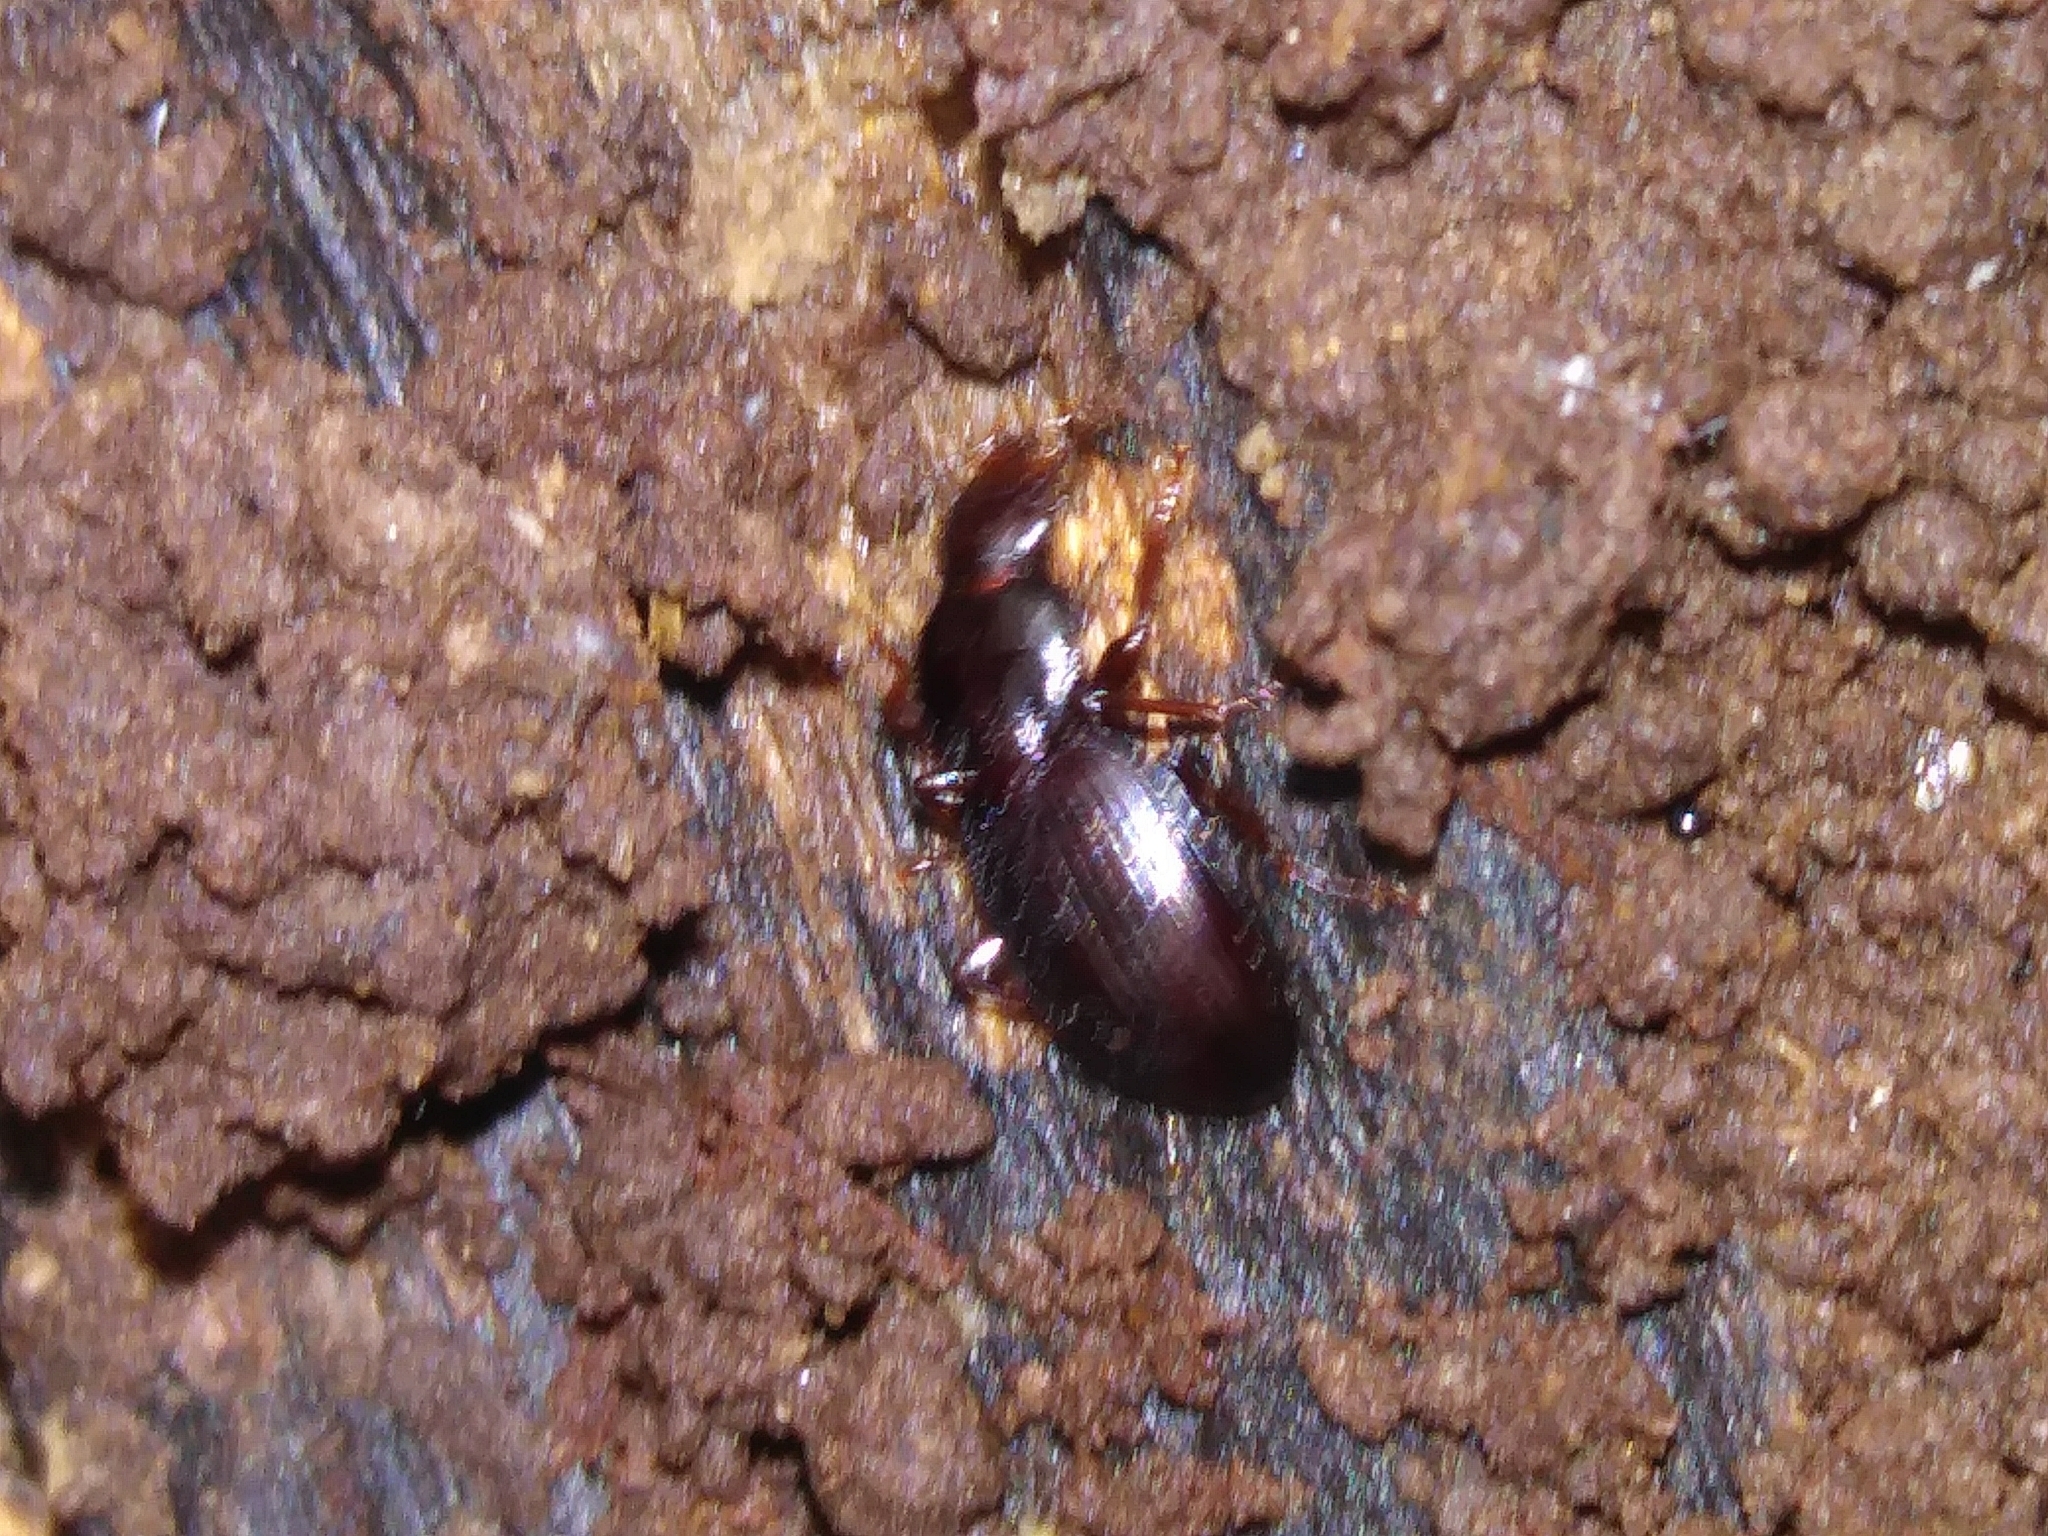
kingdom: Animalia
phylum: Arthropoda
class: Insecta
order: Coleoptera
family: Carabidae
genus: Gastrellarius
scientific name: Gastrellarius honestus
